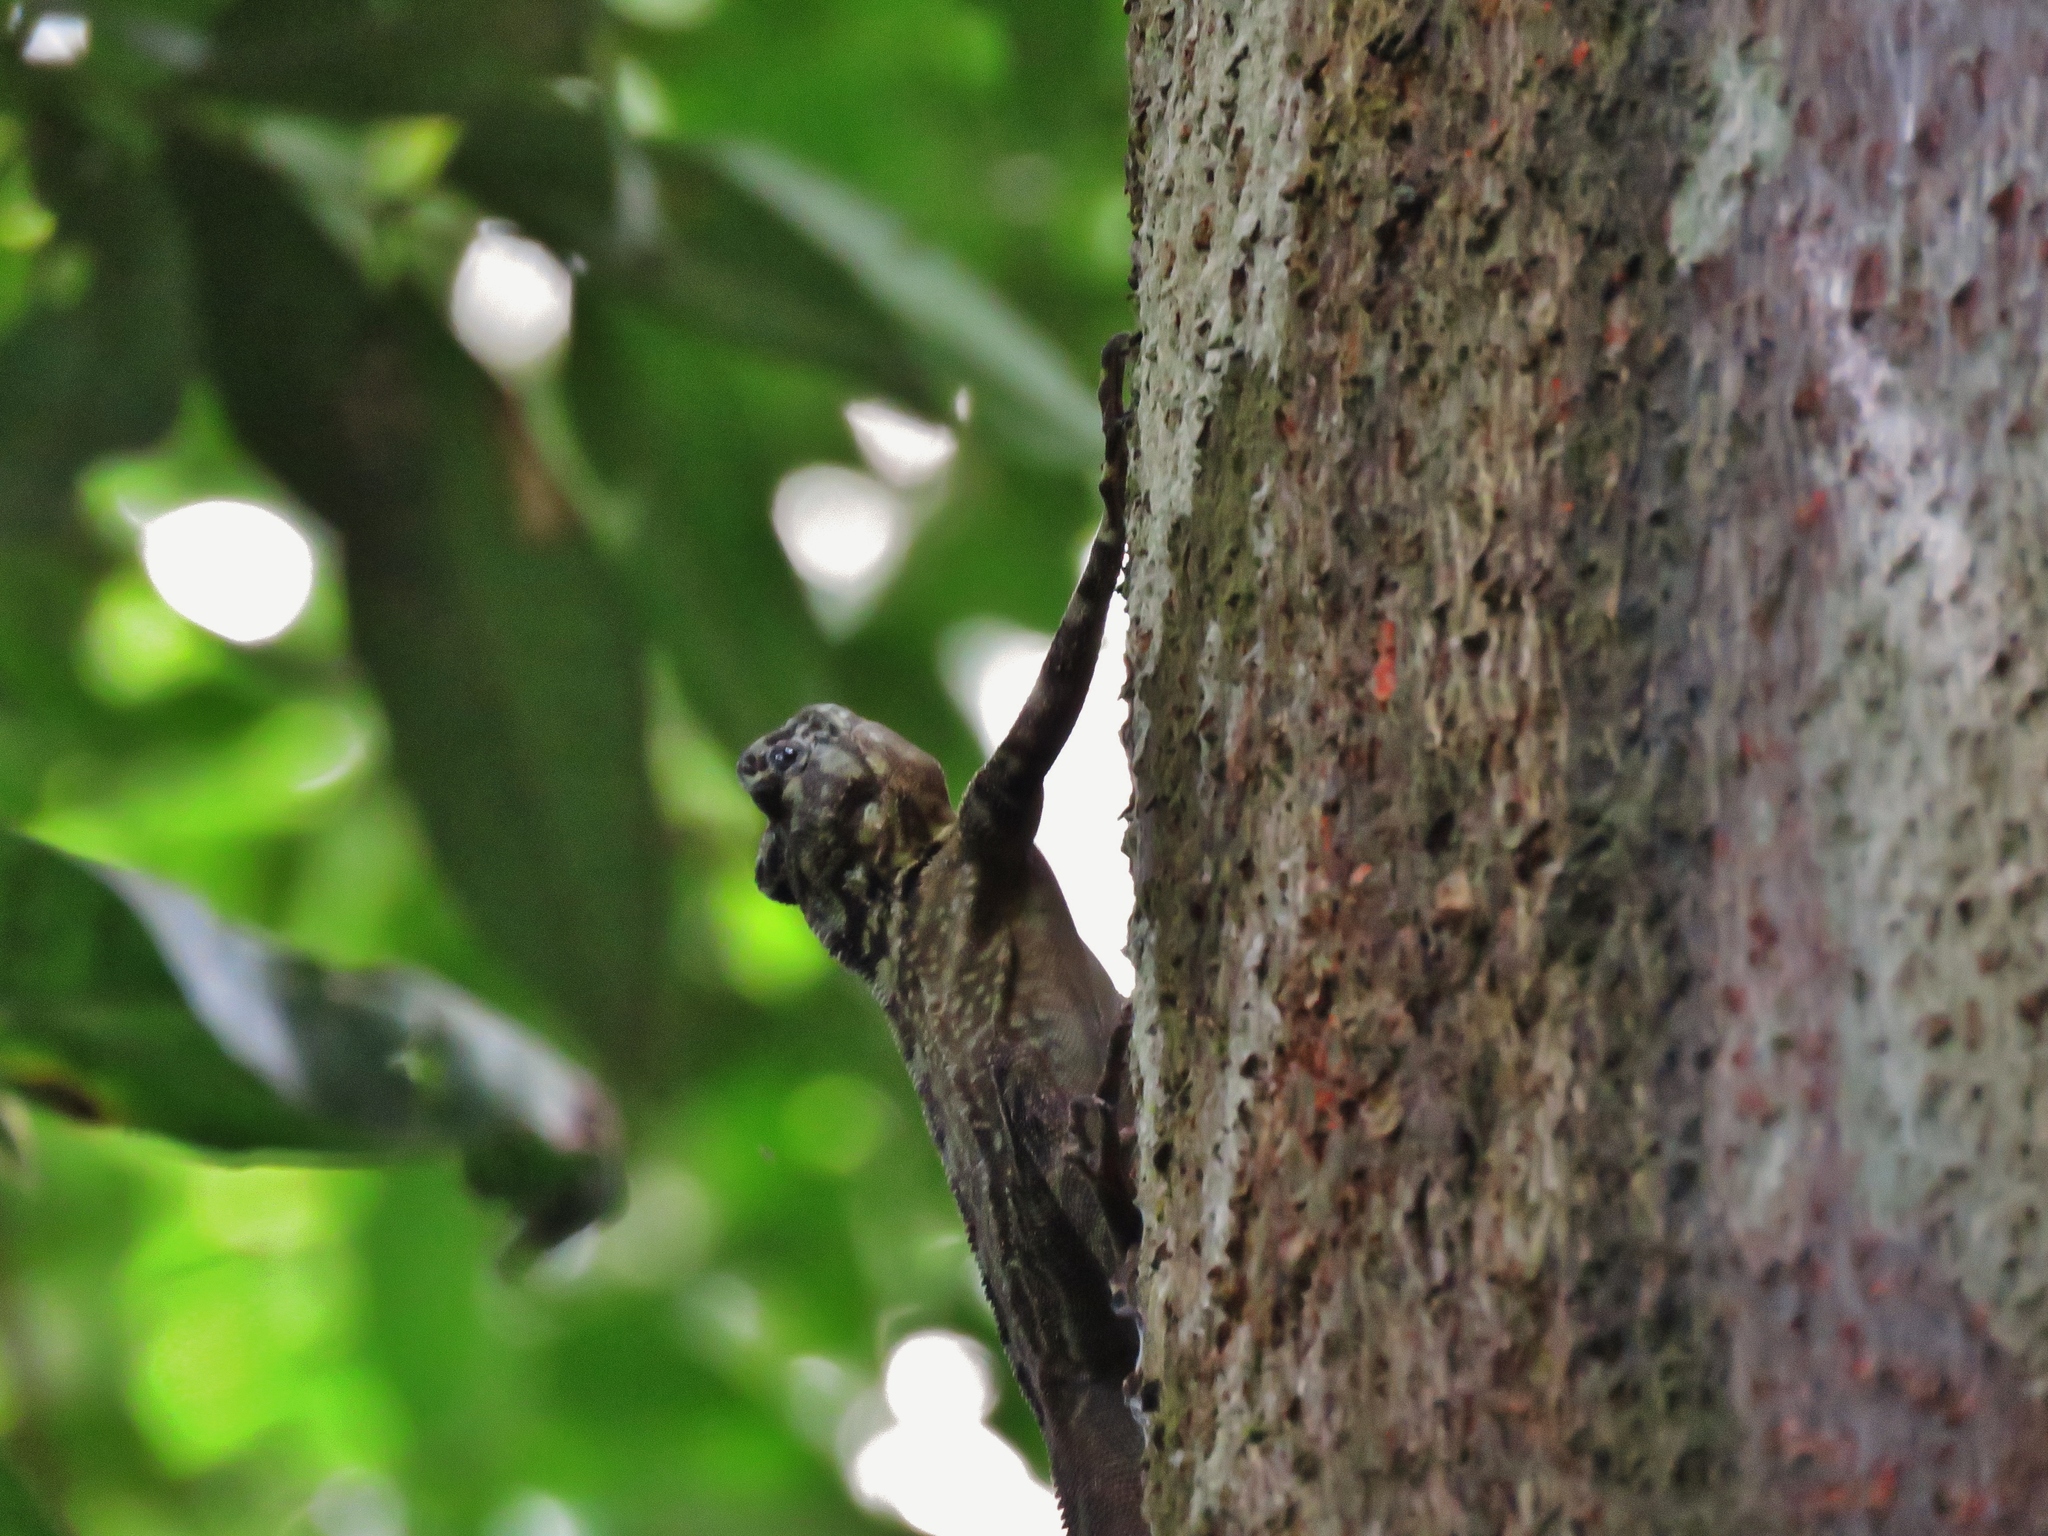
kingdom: Animalia
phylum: Chordata
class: Squamata
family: Tropiduridae
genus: Plica
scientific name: Plica plica
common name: Tree runner
